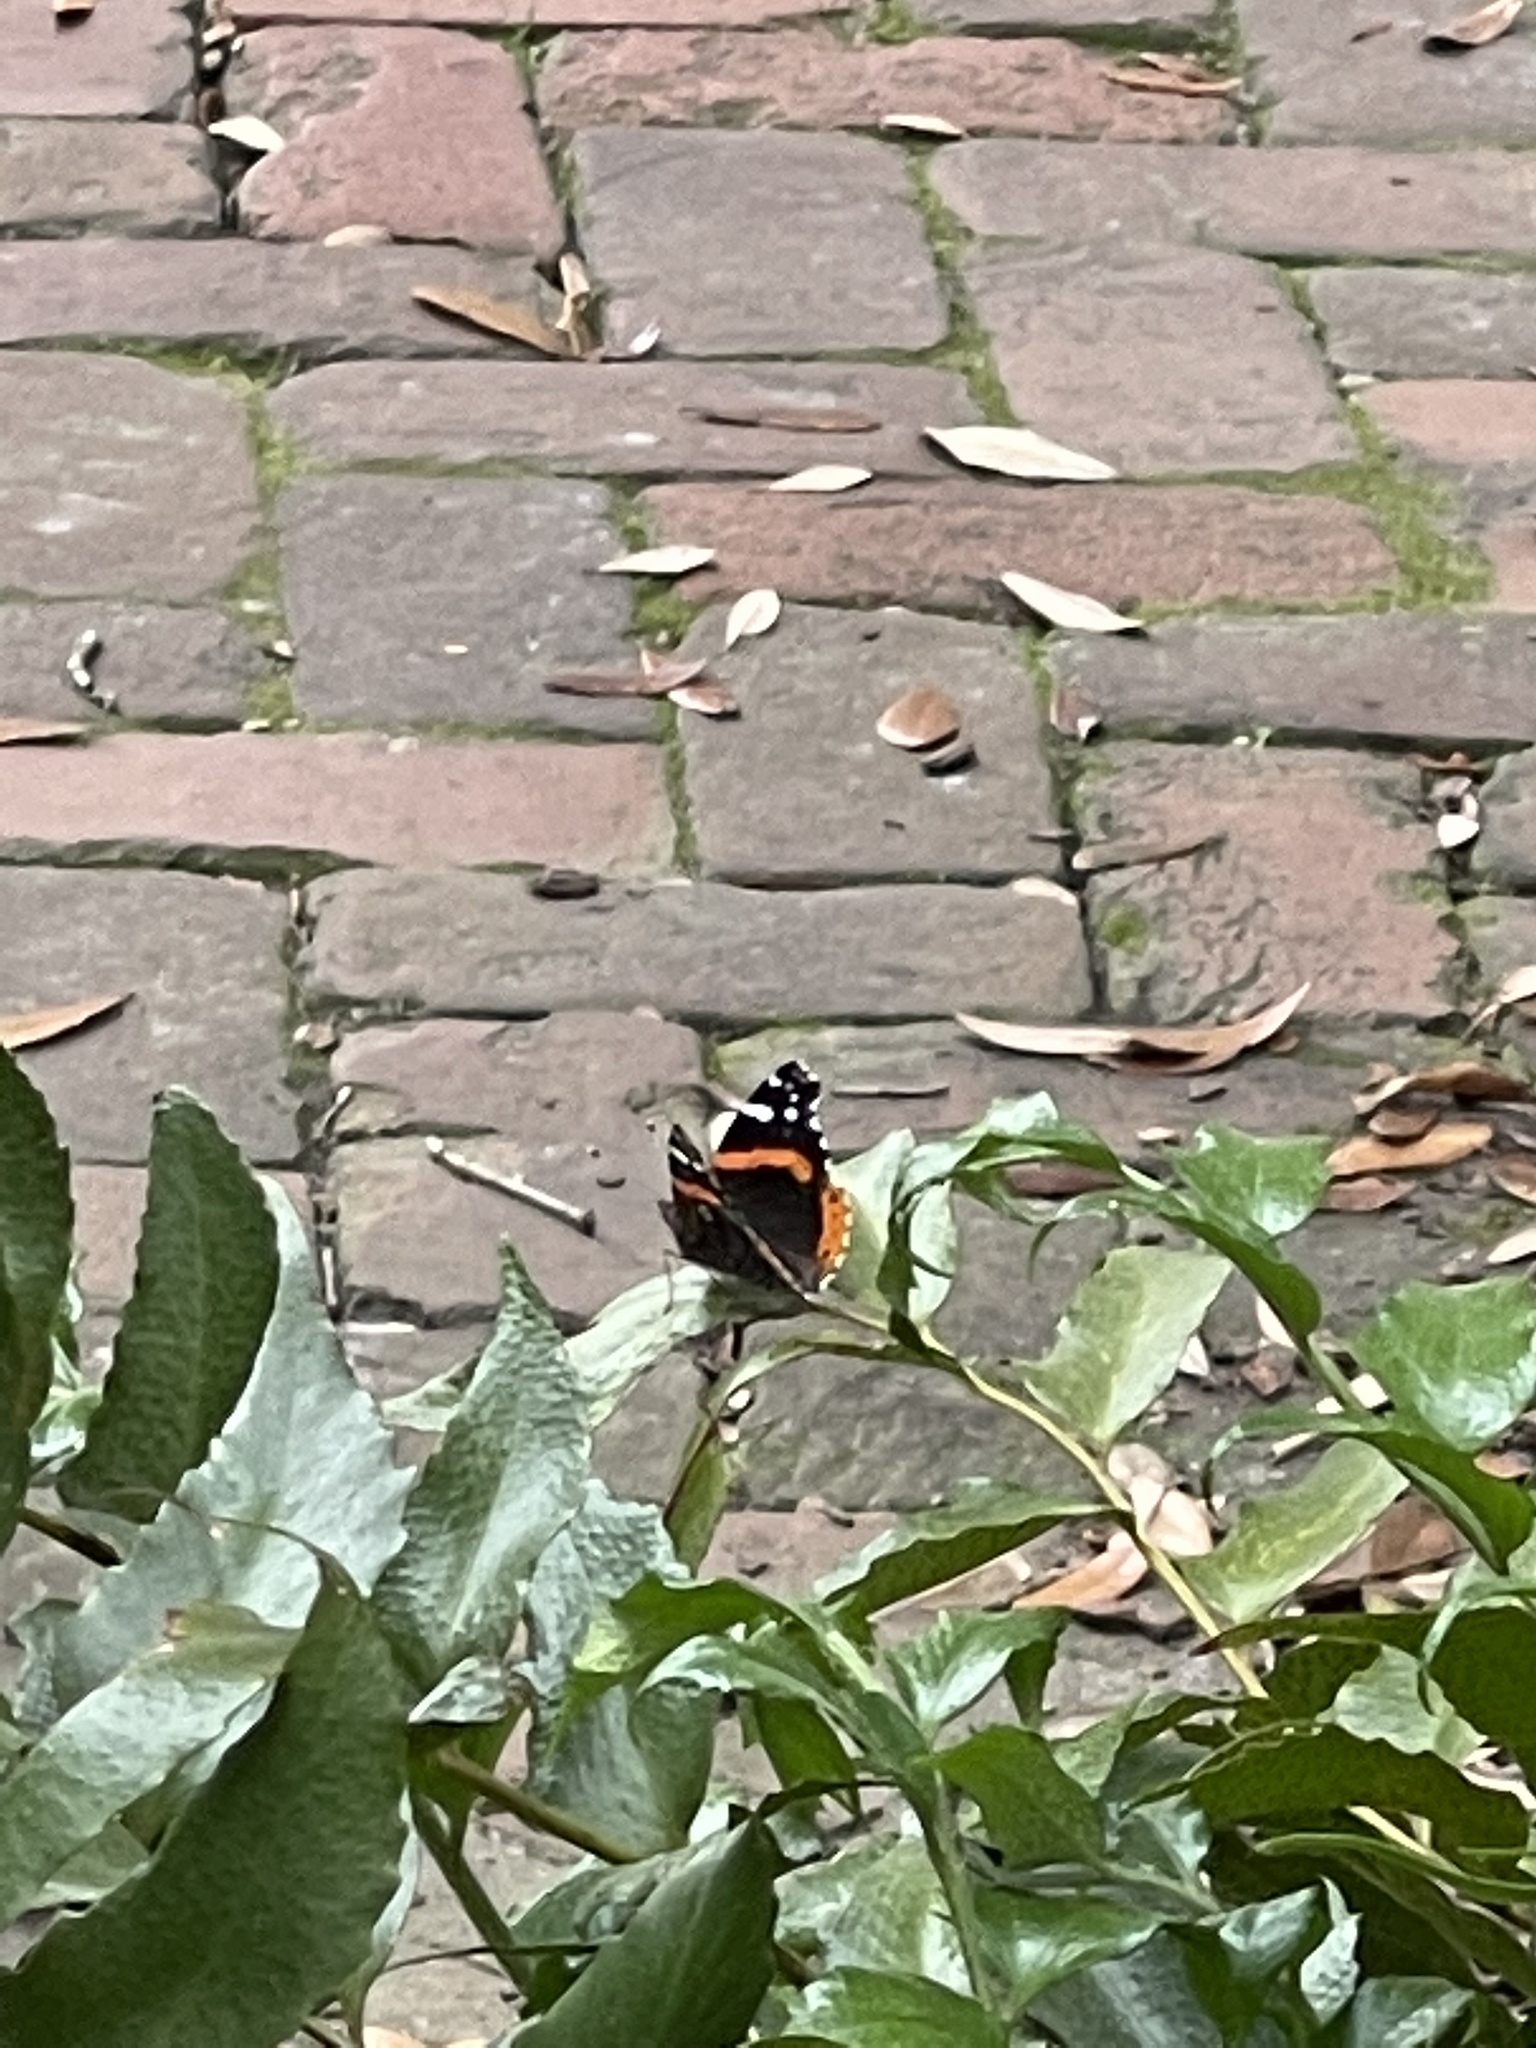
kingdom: Animalia
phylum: Arthropoda
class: Insecta
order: Lepidoptera
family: Nymphalidae
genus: Vanessa
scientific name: Vanessa atalanta
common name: Red admiral
